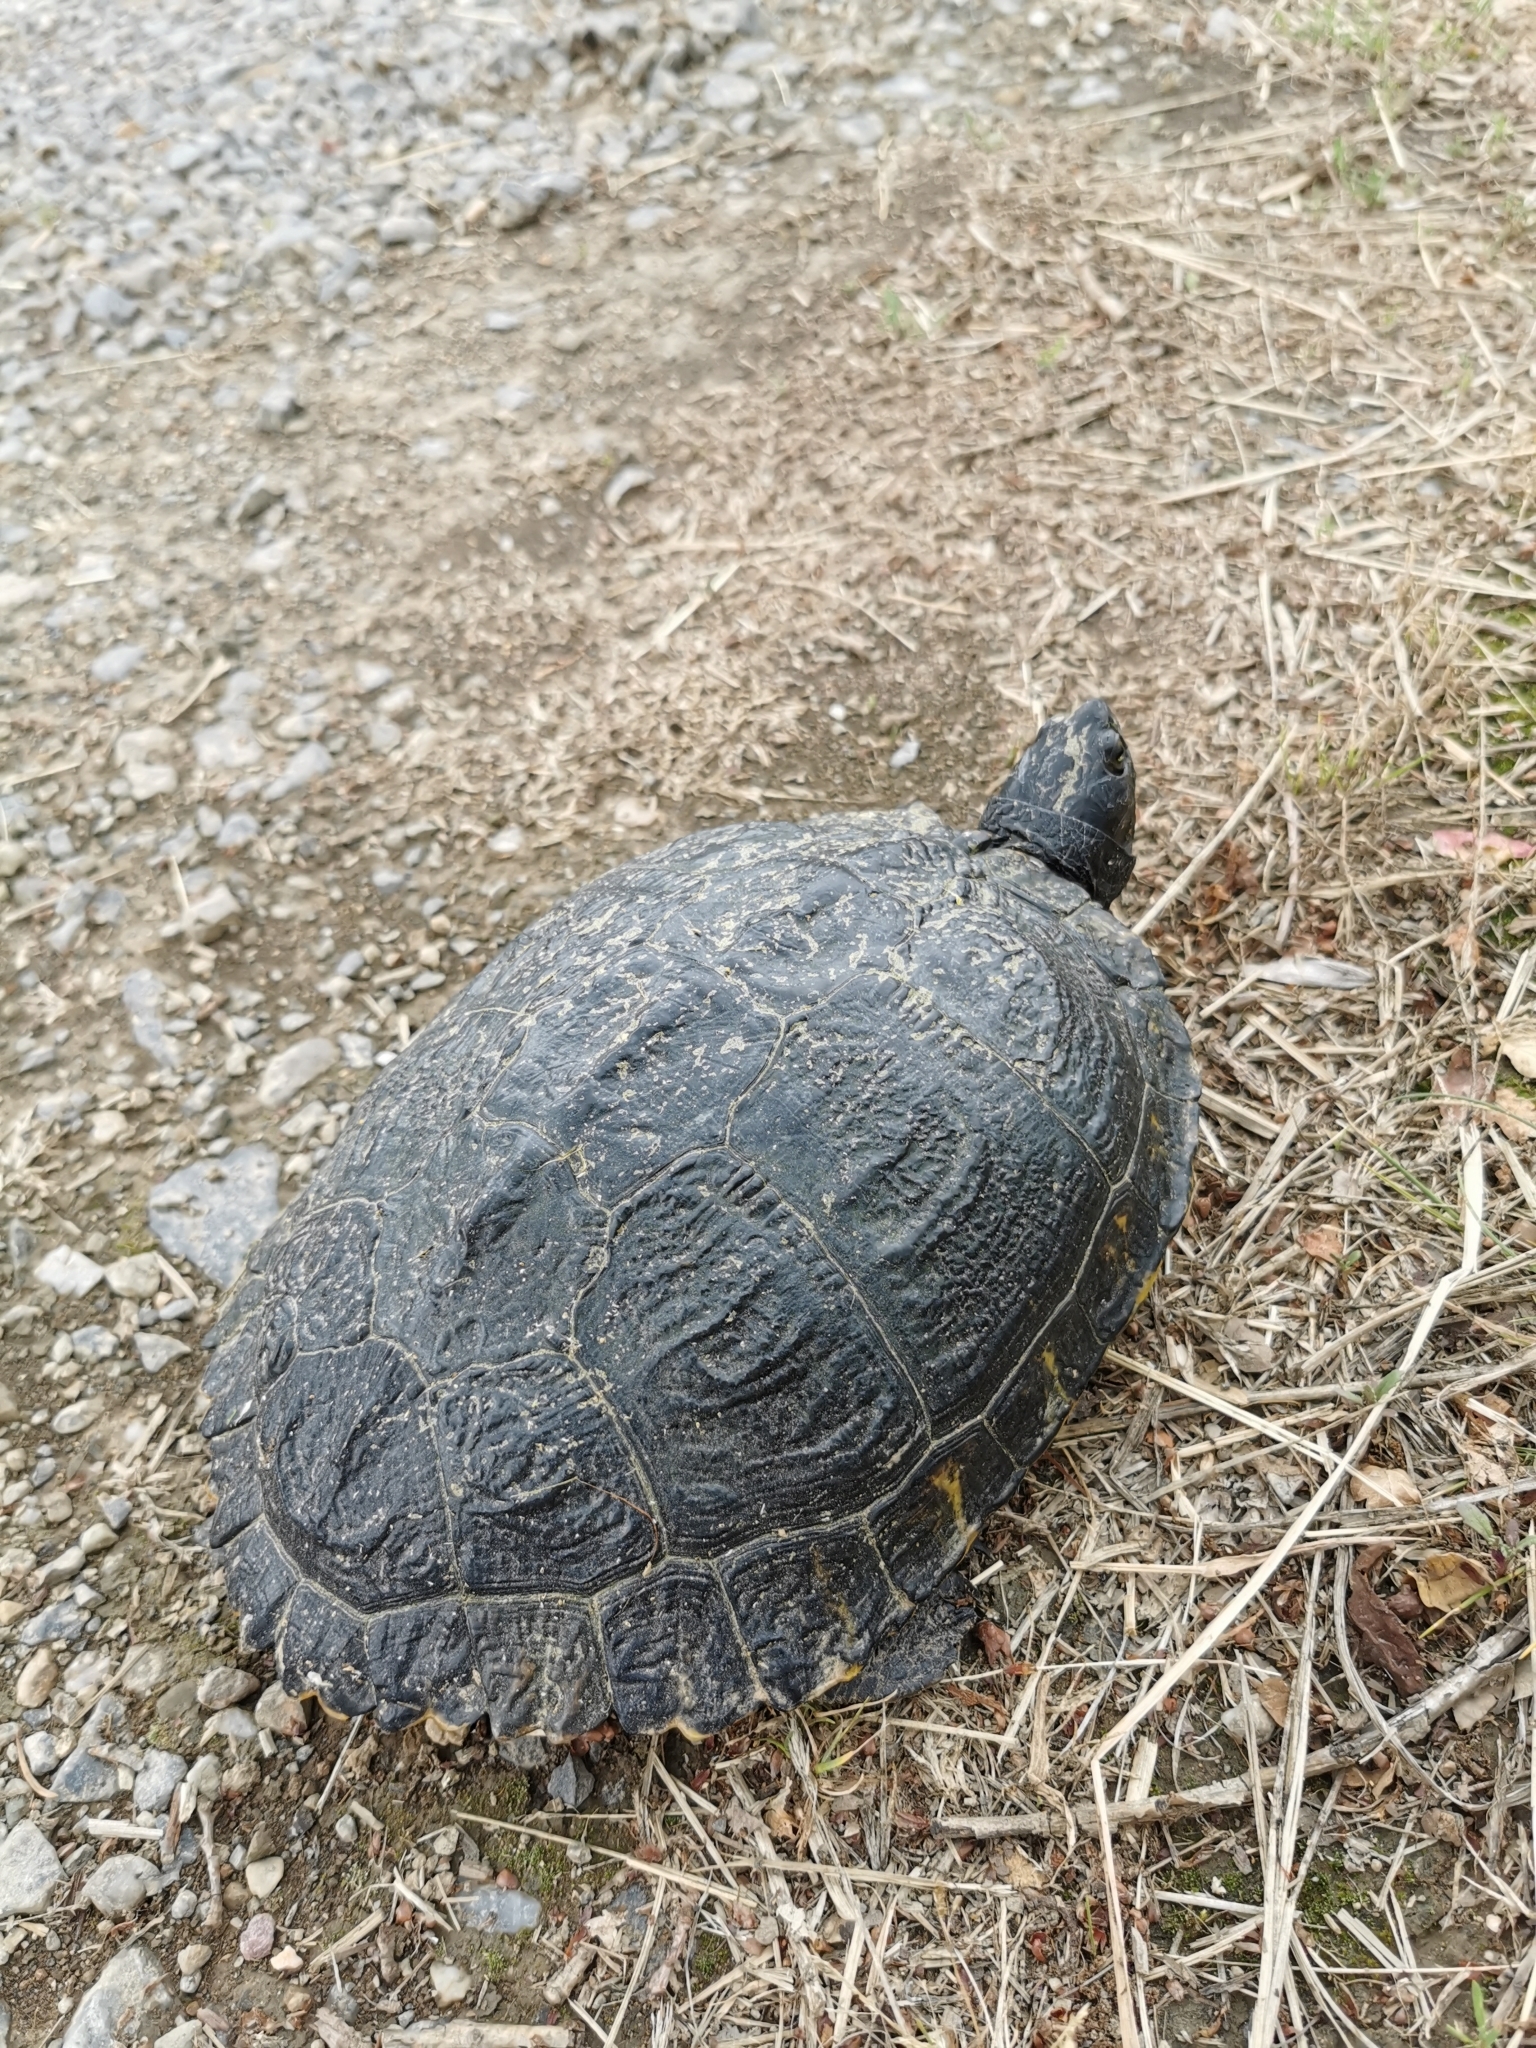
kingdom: Animalia
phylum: Chordata
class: Testudines
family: Emydidae
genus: Trachemys
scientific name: Trachemys scripta
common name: Slider
